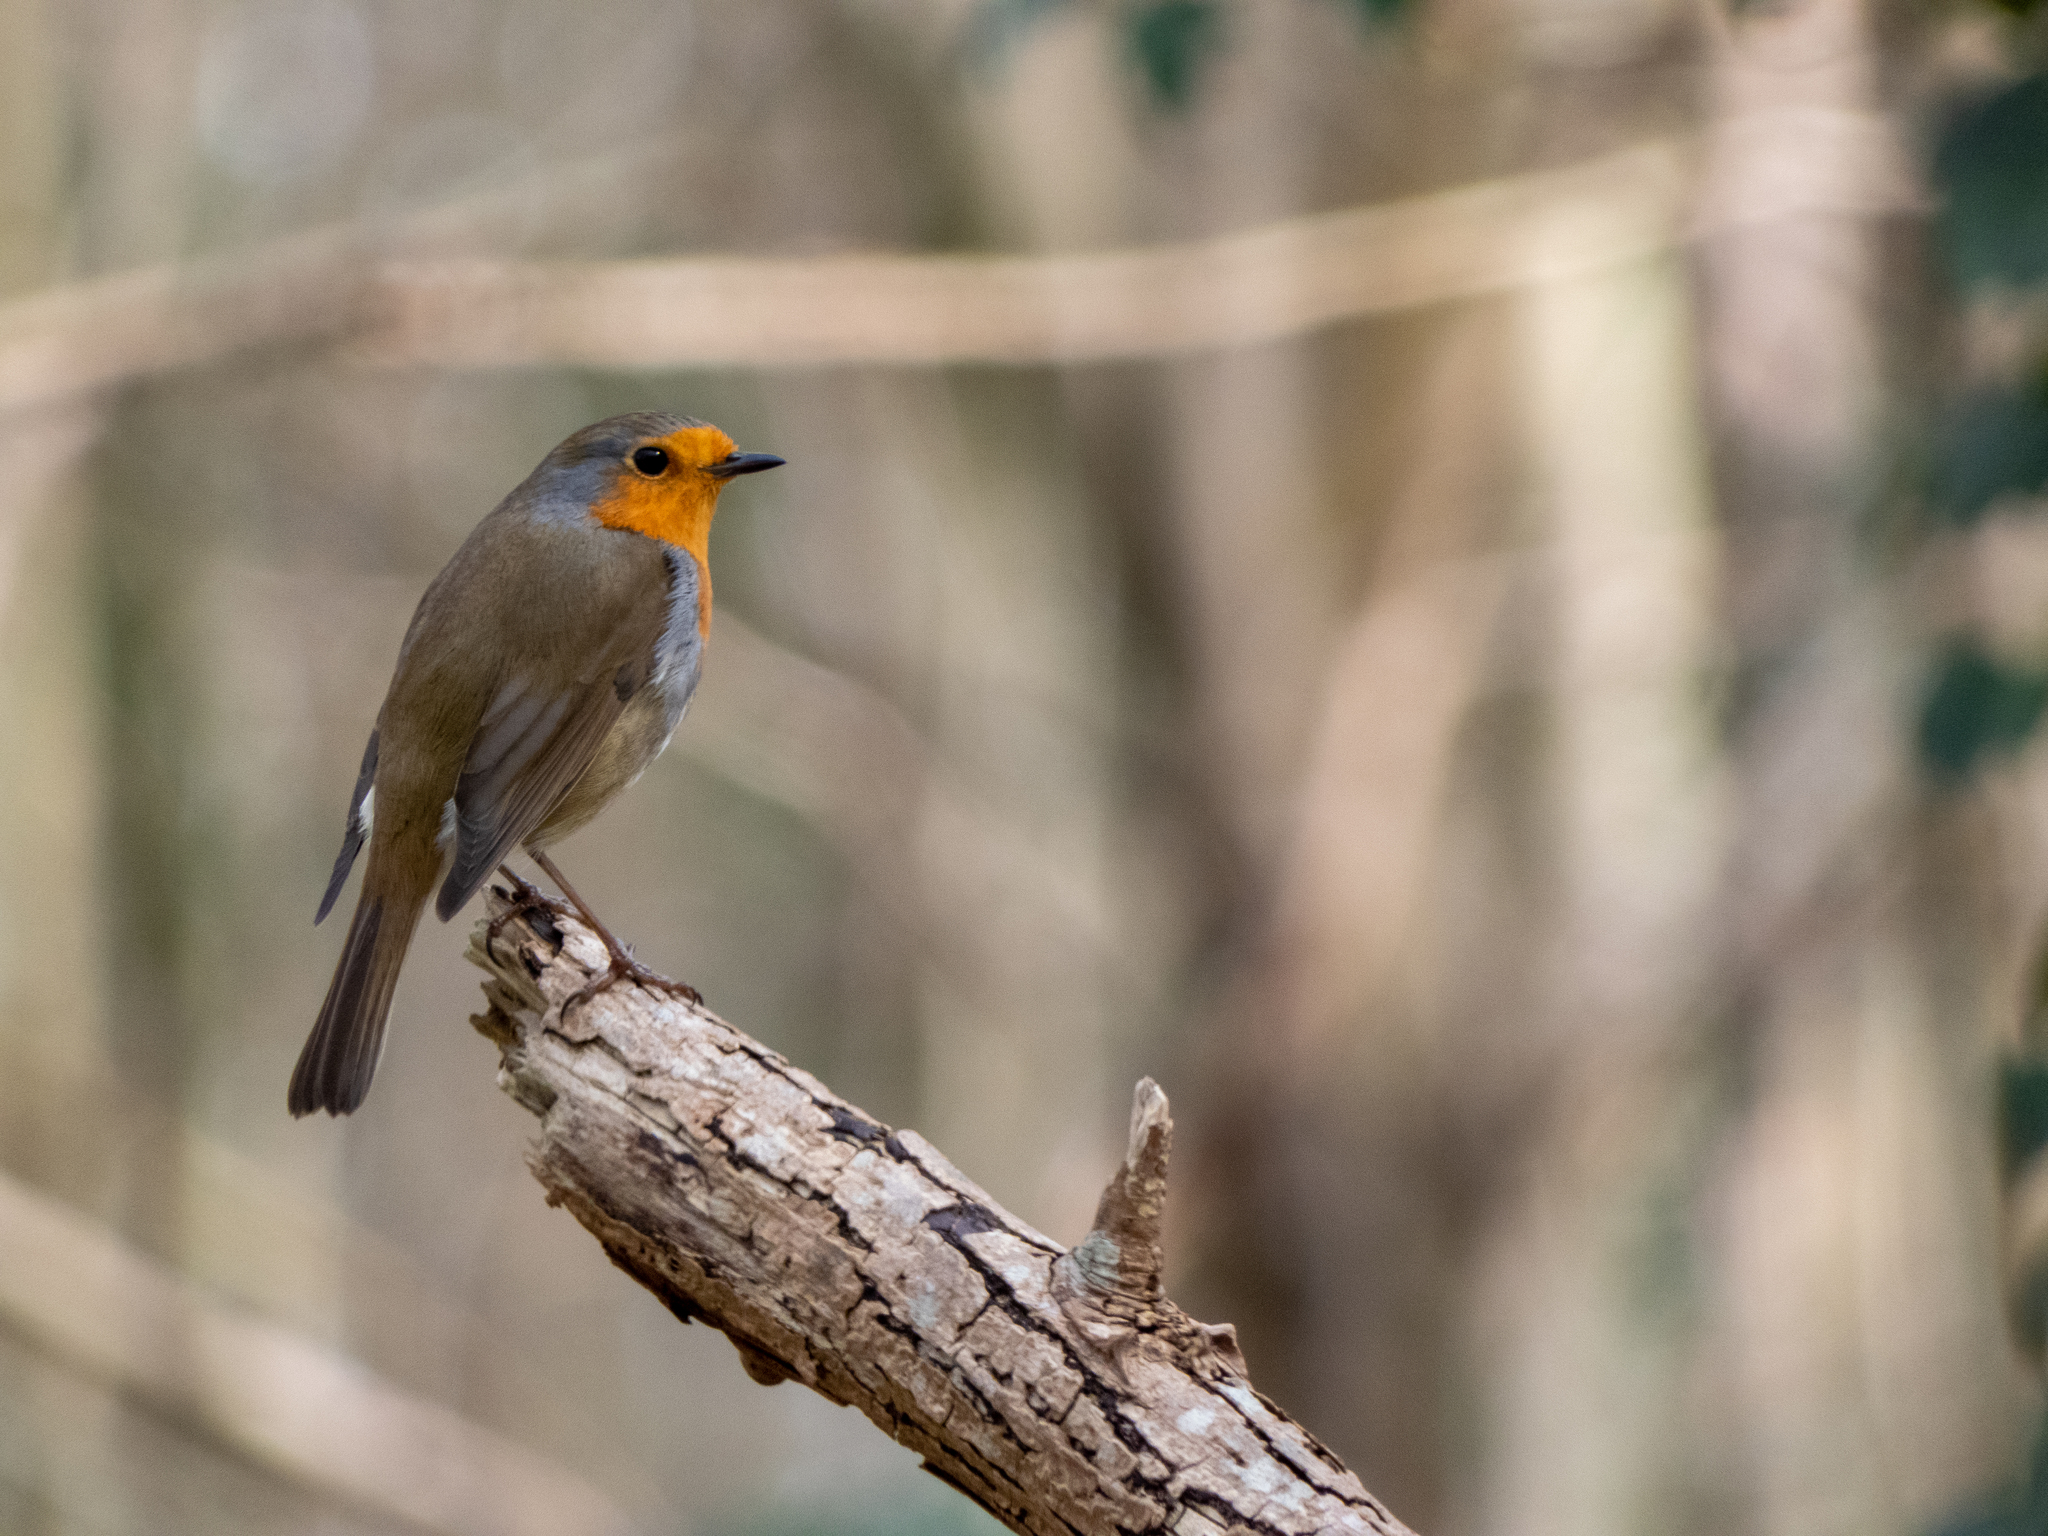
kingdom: Animalia
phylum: Chordata
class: Aves
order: Passeriformes
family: Muscicapidae
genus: Erithacus
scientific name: Erithacus rubecula
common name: European robin
